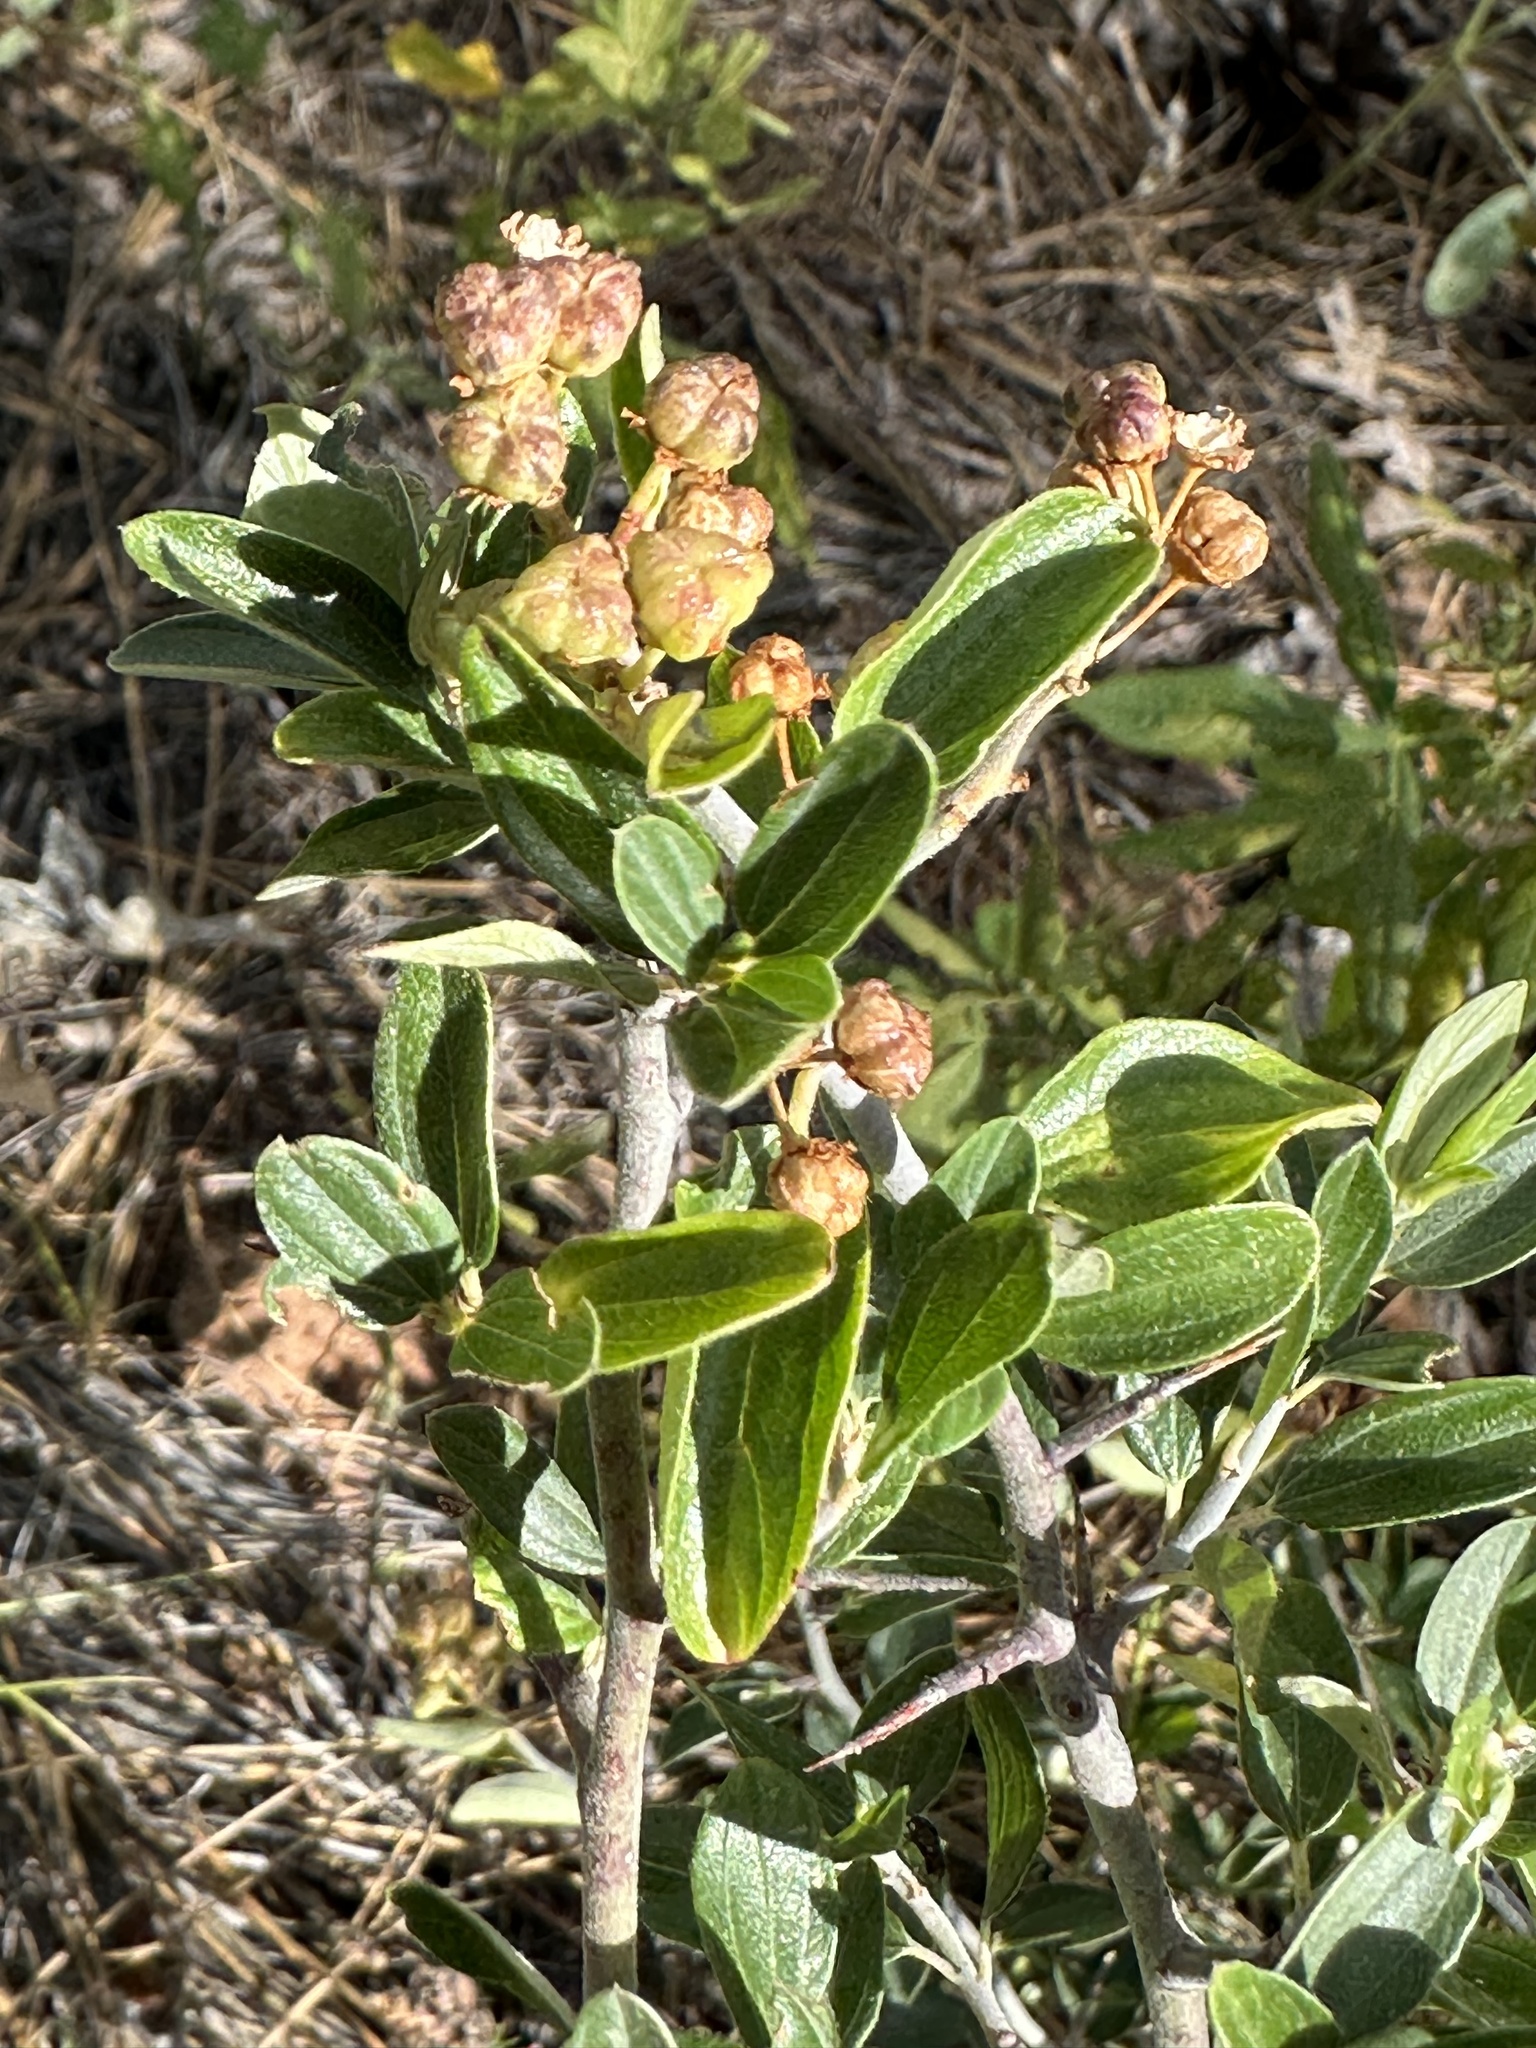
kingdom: Plantae
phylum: Tracheophyta
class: Magnoliopsida
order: Rosales
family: Rhamnaceae
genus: Ceanothus
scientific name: Ceanothus fendleri
